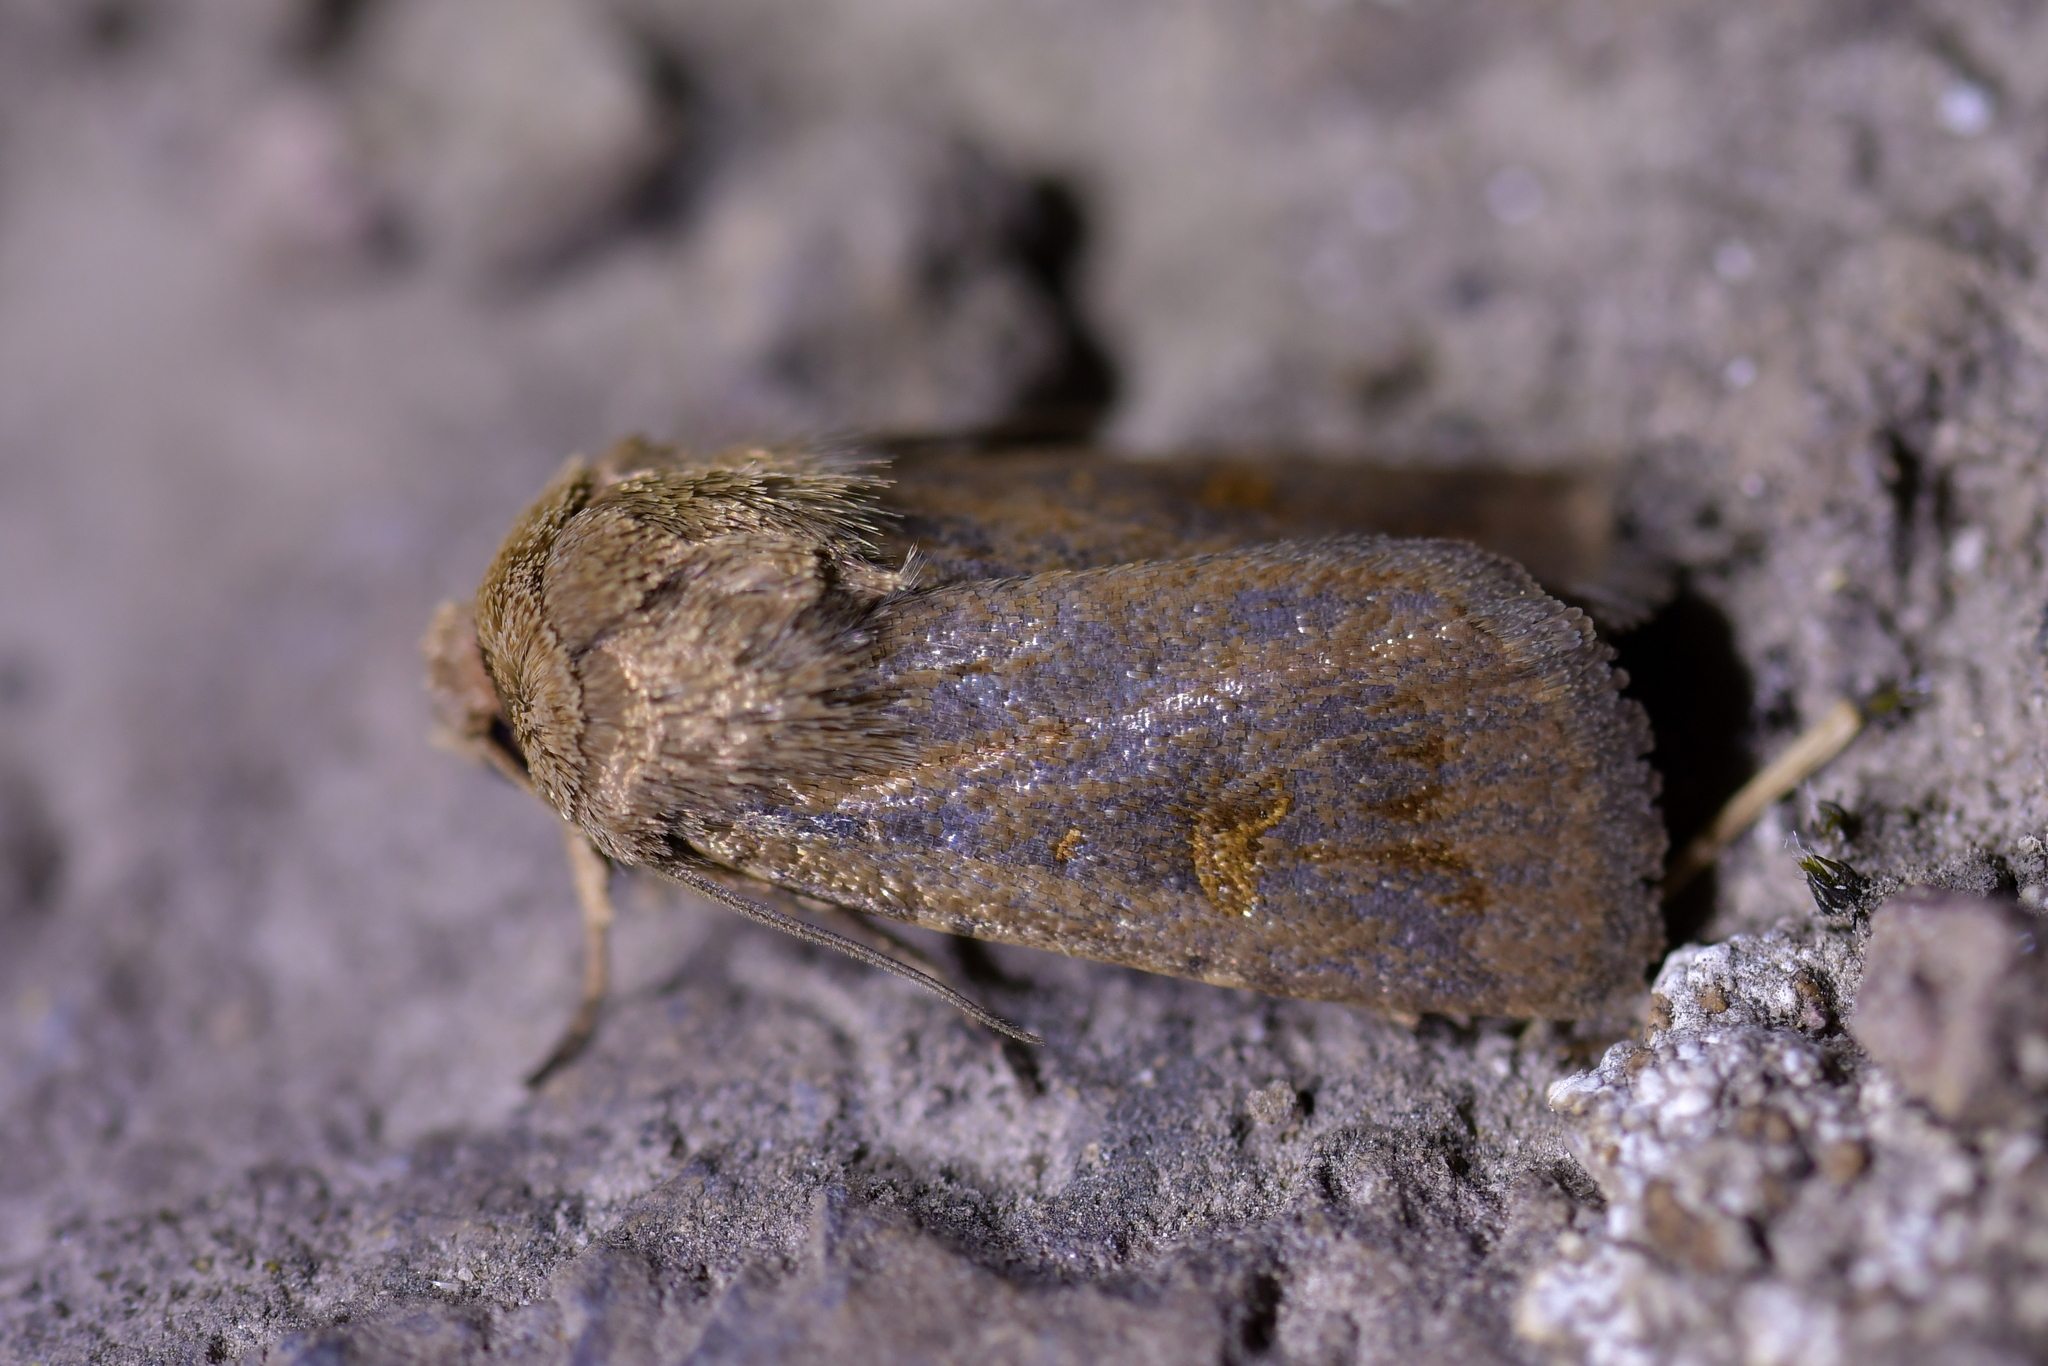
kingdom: Animalia
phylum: Arthropoda
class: Insecta
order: Lepidoptera
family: Noctuidae
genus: Proteuxoa
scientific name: Proteuxoa tetronycha
